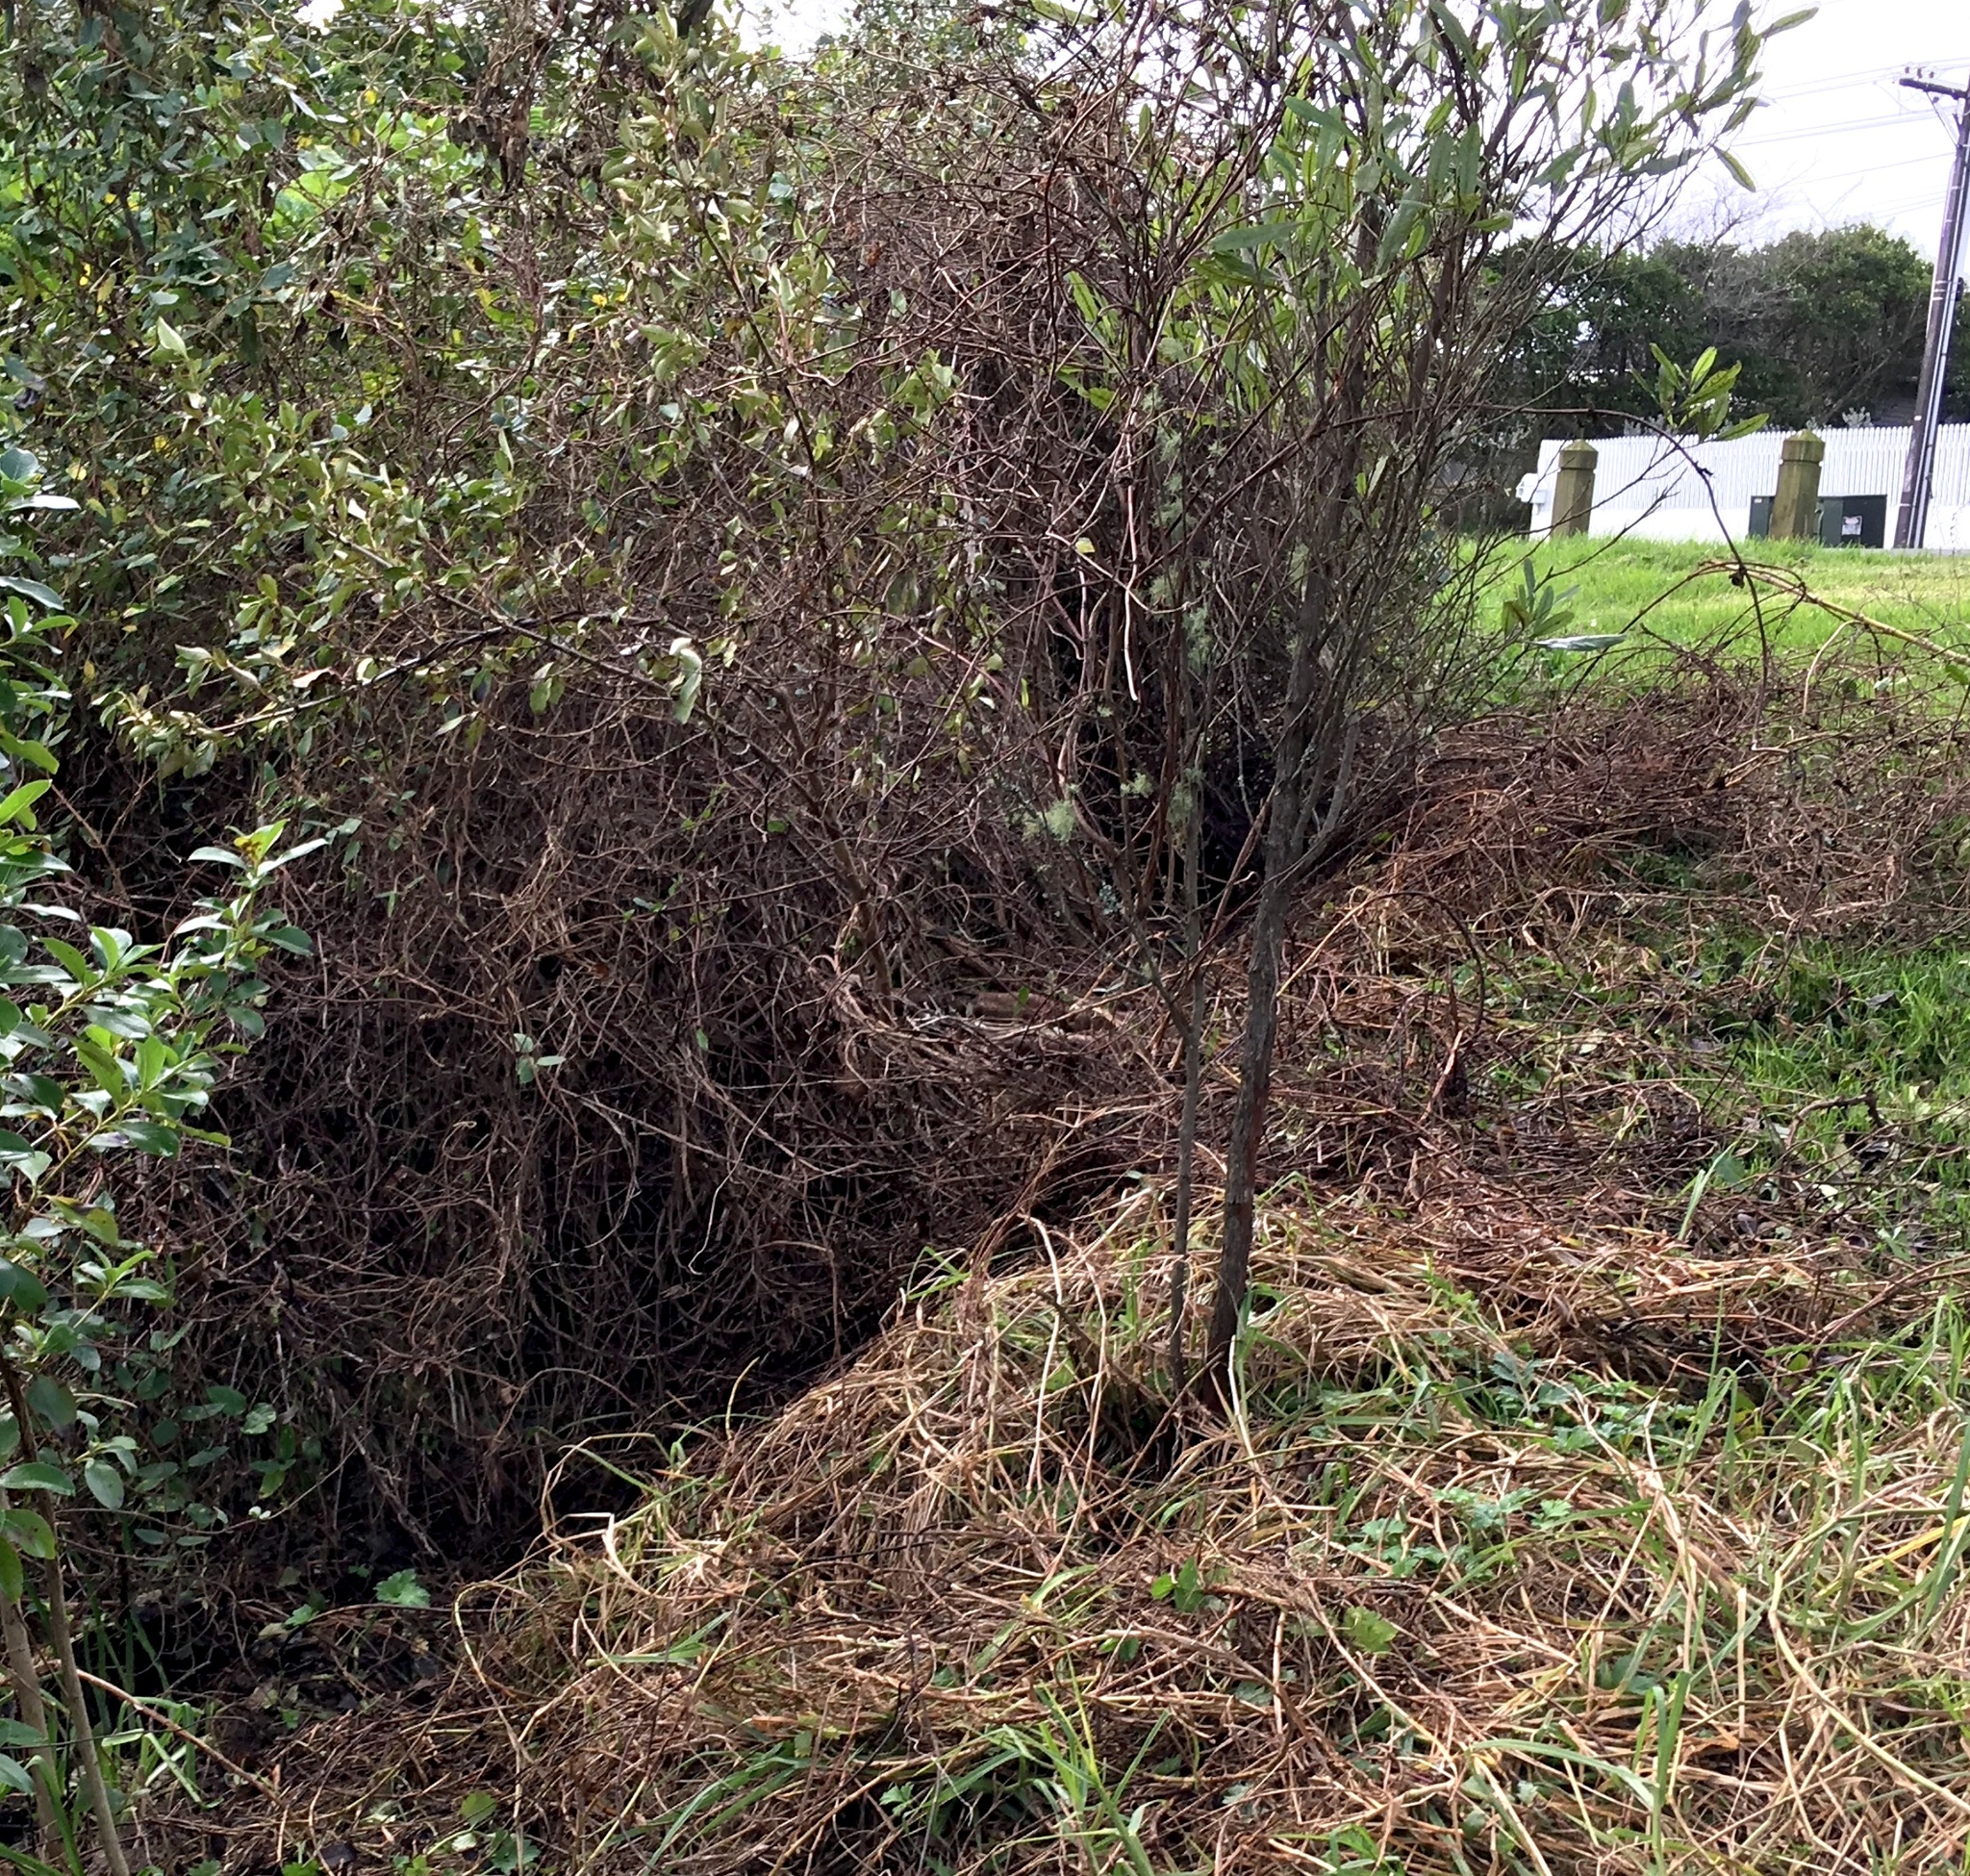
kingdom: Plantae
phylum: Tracheophyta
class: Magnoliopsida
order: Gentianales
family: Rubiaceae
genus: Coprosma
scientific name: Coprosma robusta
